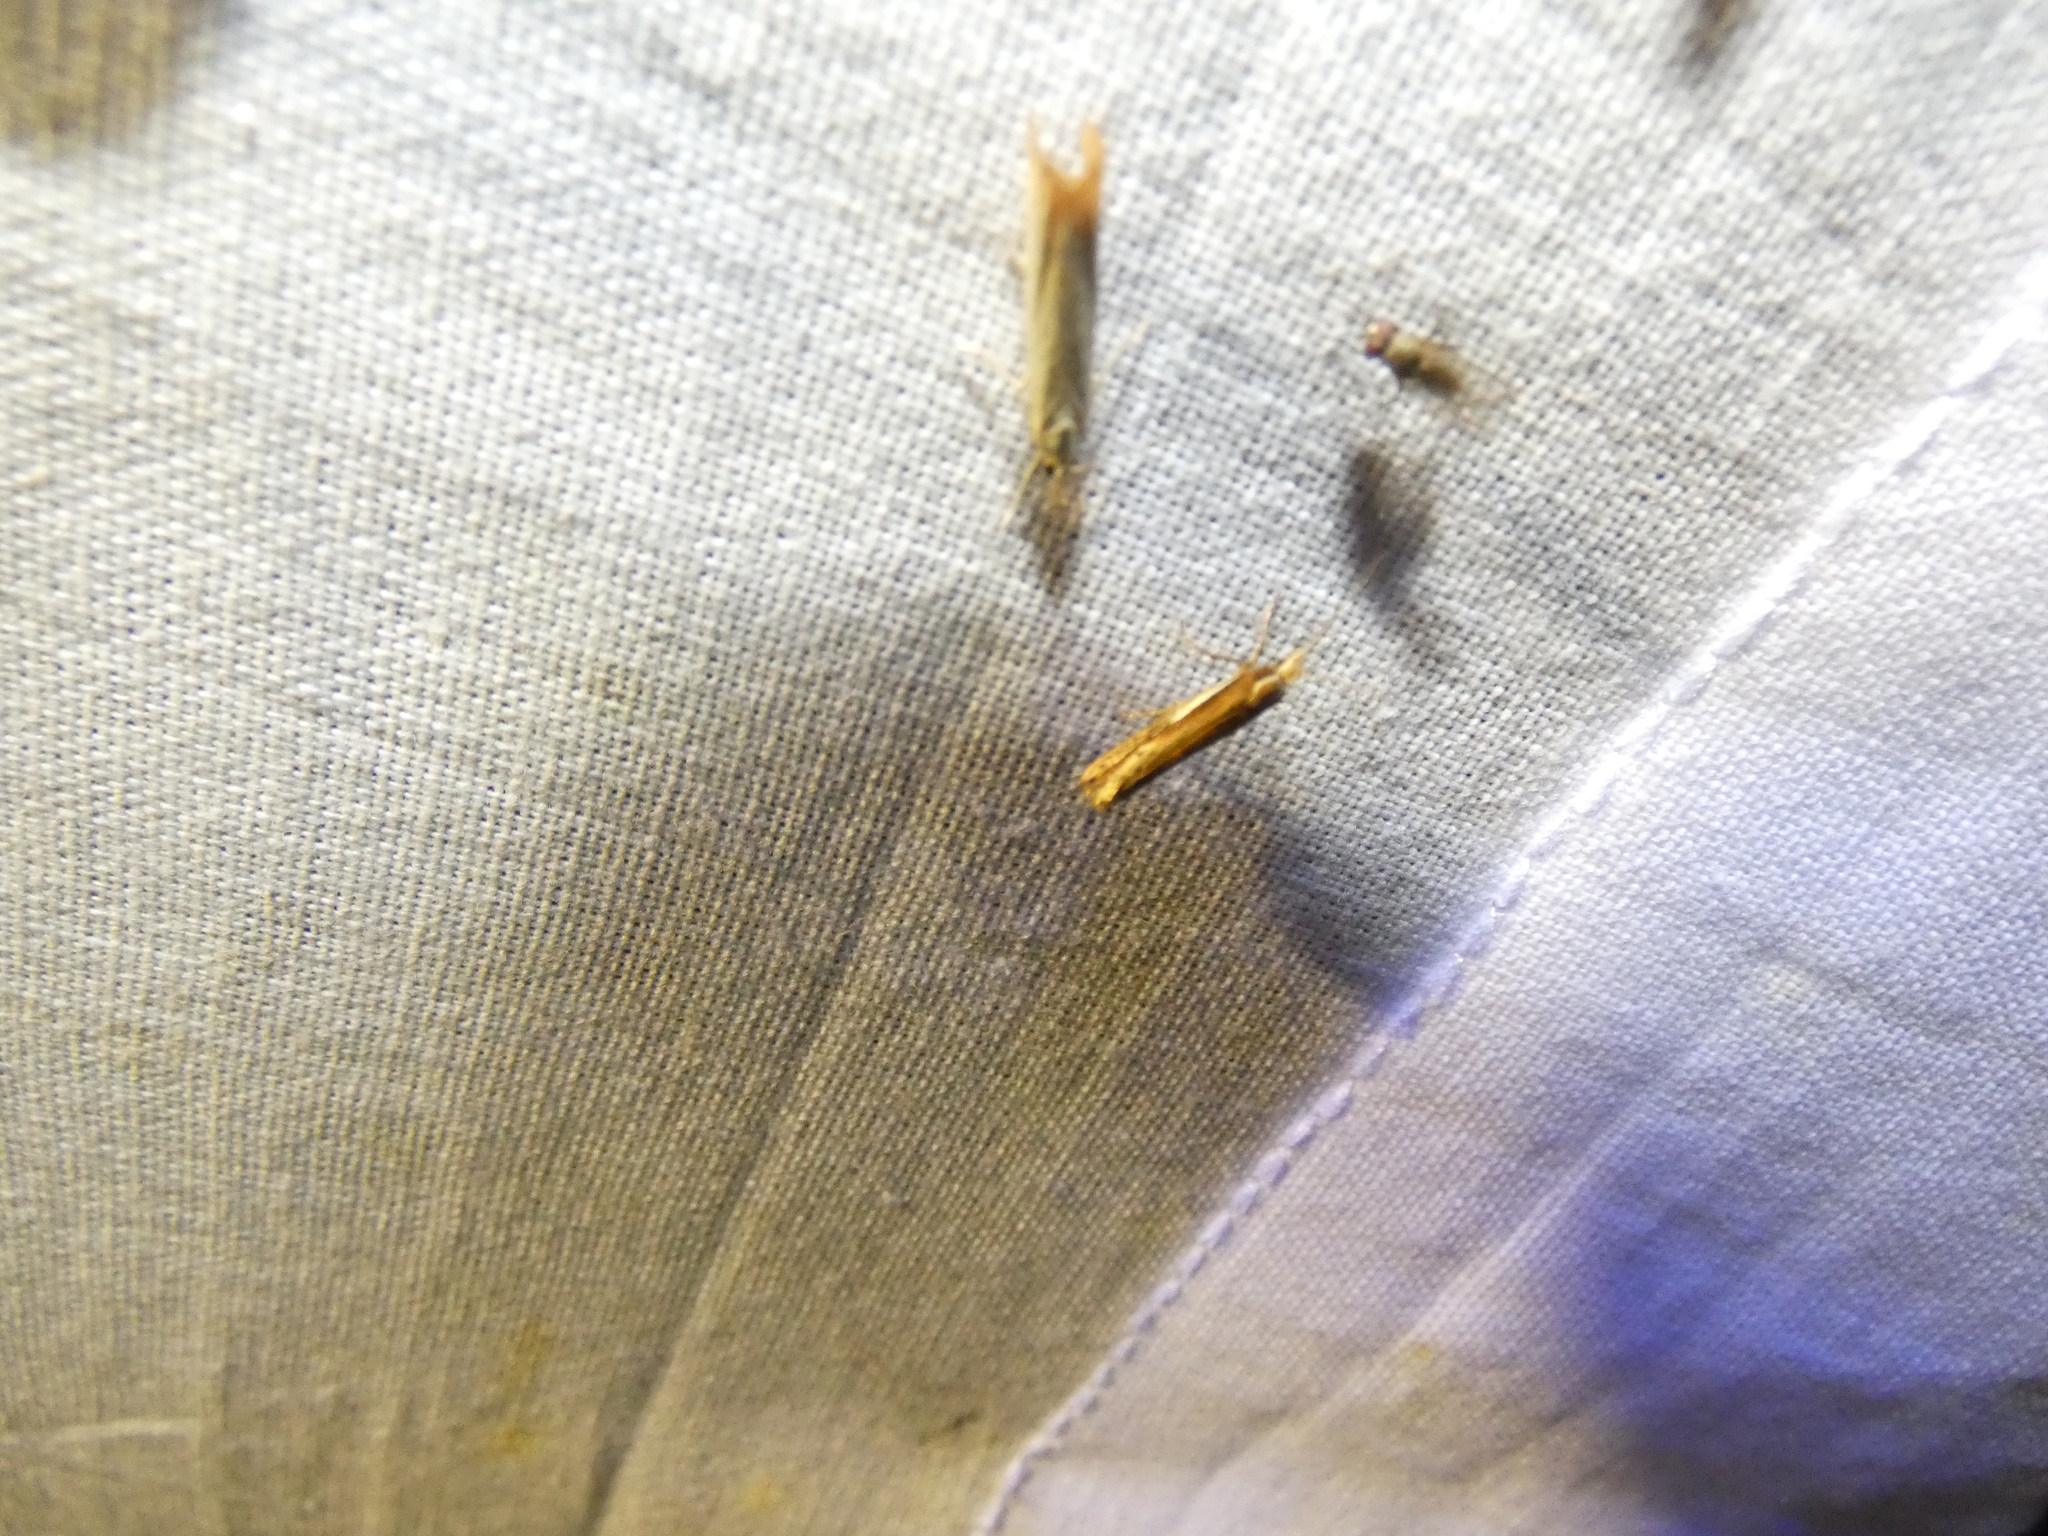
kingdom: Animalia
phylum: Arthropoda
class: Insecta
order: Lepidoptera
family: Ypsolophidae
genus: Ypsolopha
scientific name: Ypsolopha parenthesella
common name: White-shouldered smudge
